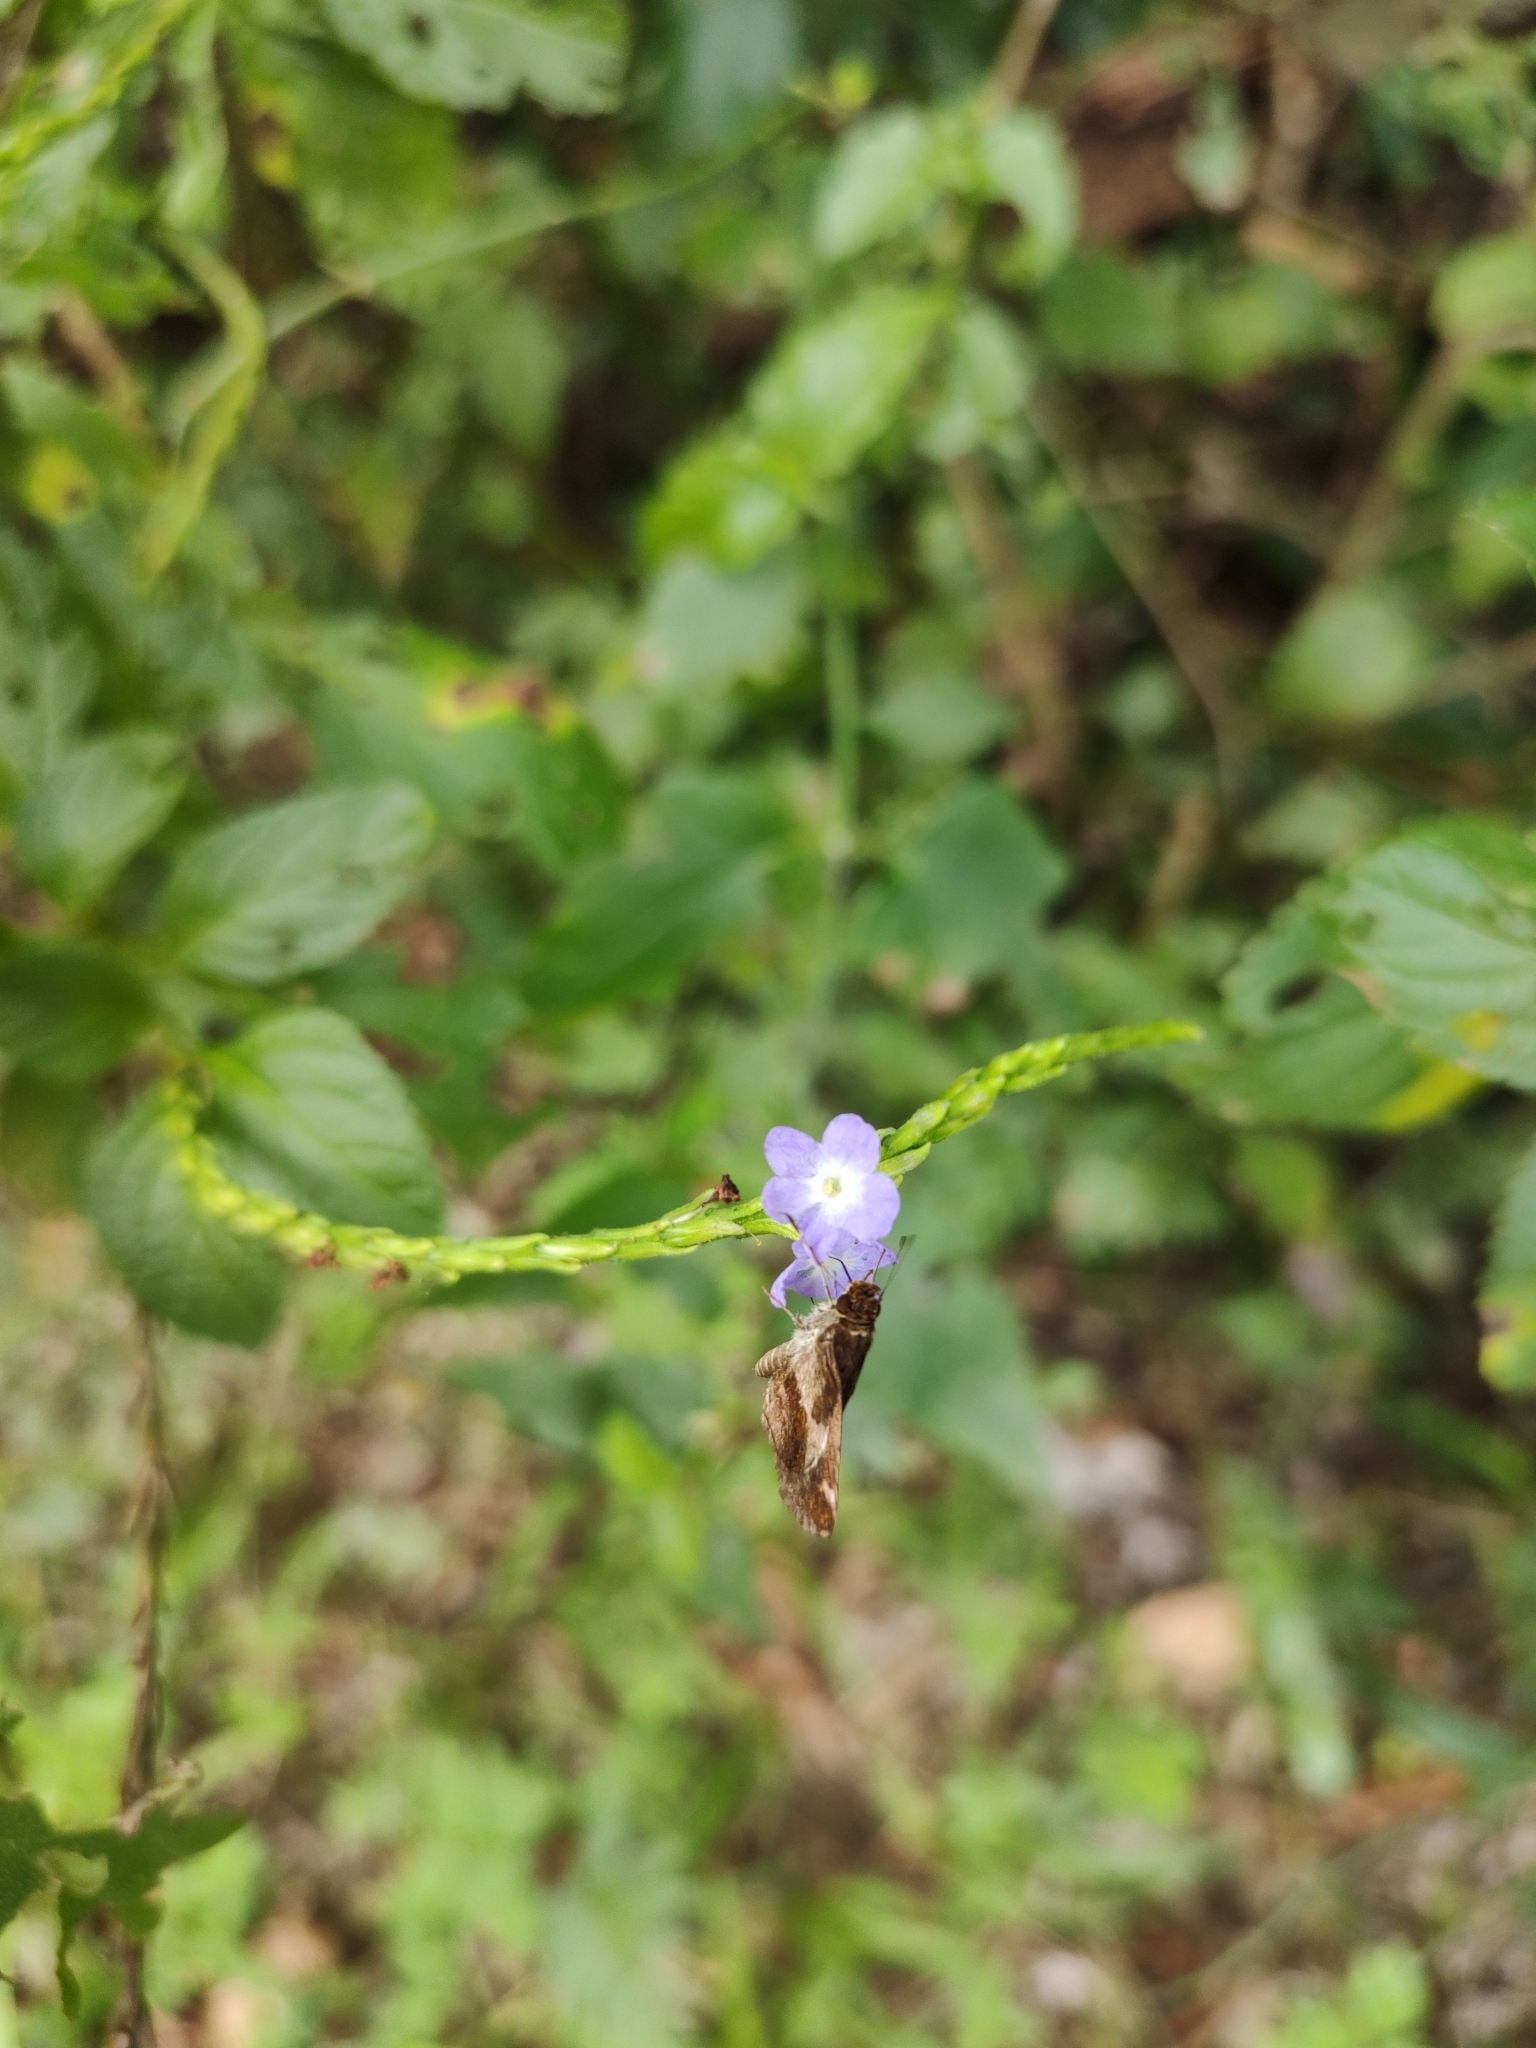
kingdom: Animalia
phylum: Arthropoda
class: Insecta
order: Lepidoptera
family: Hesperiidae
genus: Callimormus
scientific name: Callimormus
